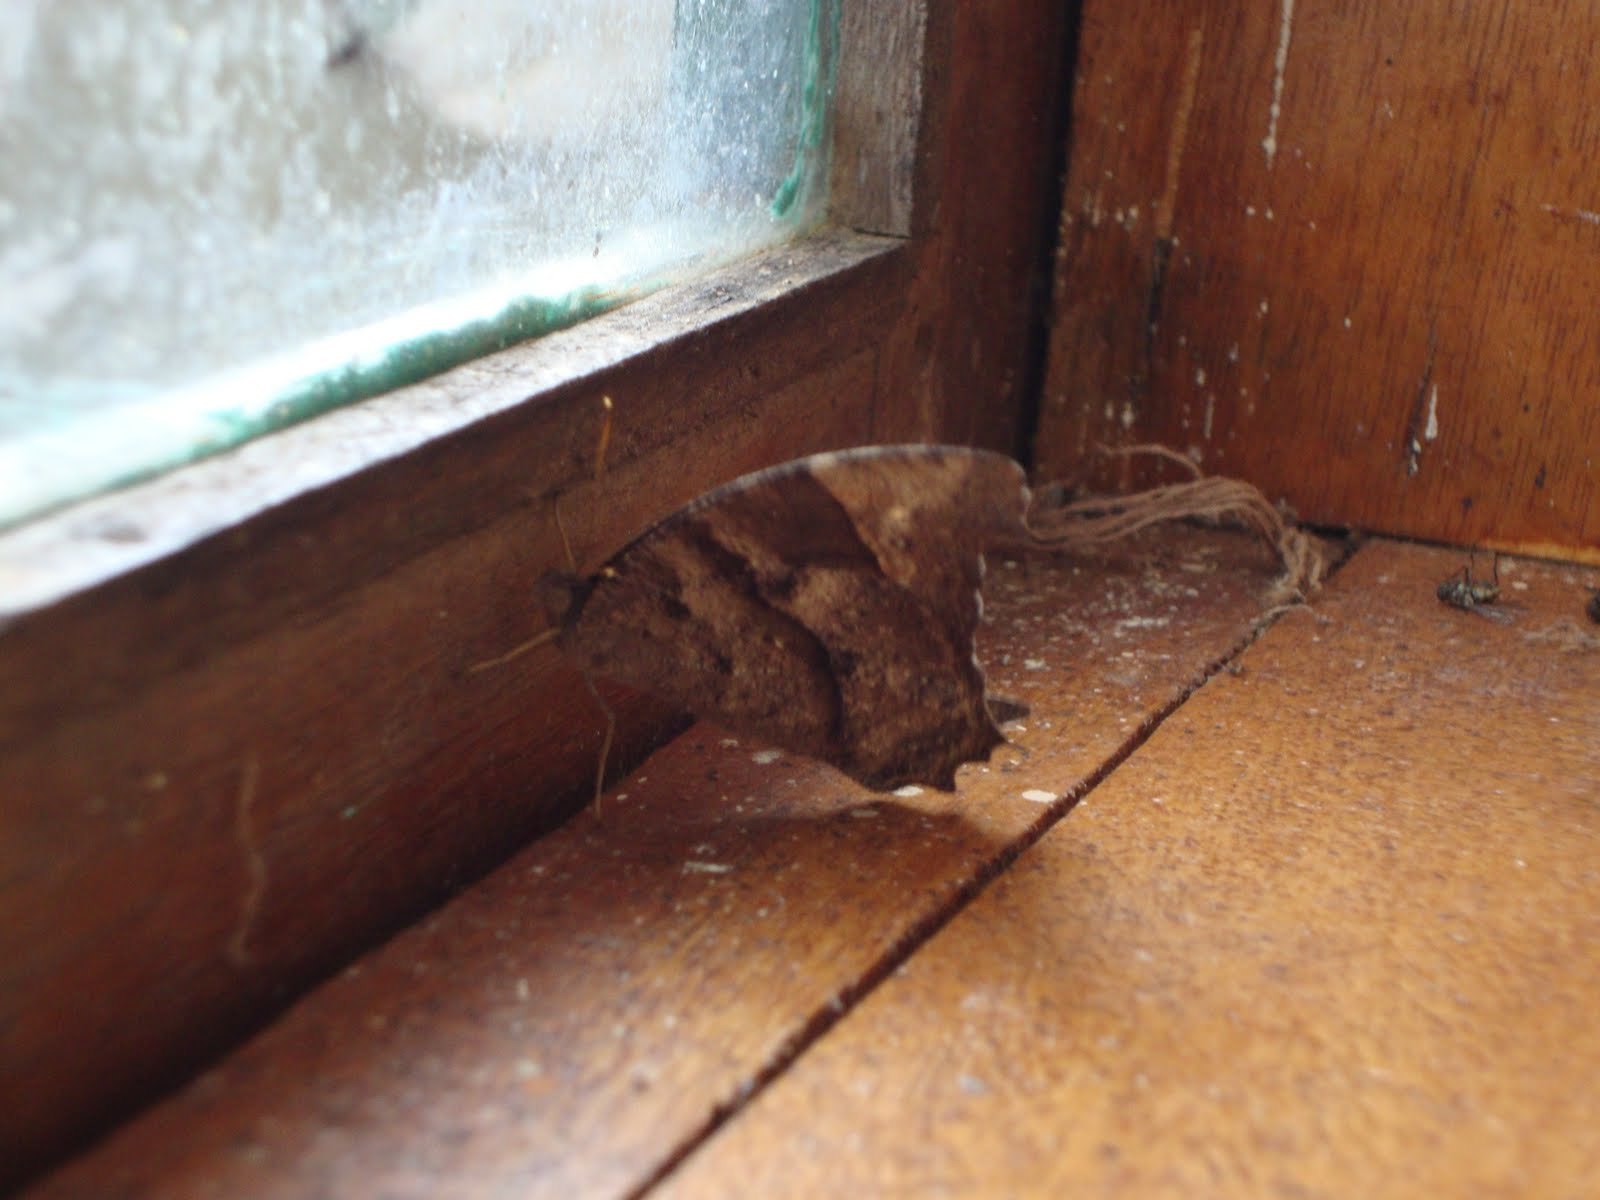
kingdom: Animalia
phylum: Arthropoda
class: Insecta
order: Lepidoptera
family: Nymphalidae
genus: Melanitis
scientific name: Melanitis leda
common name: Twilight brown
